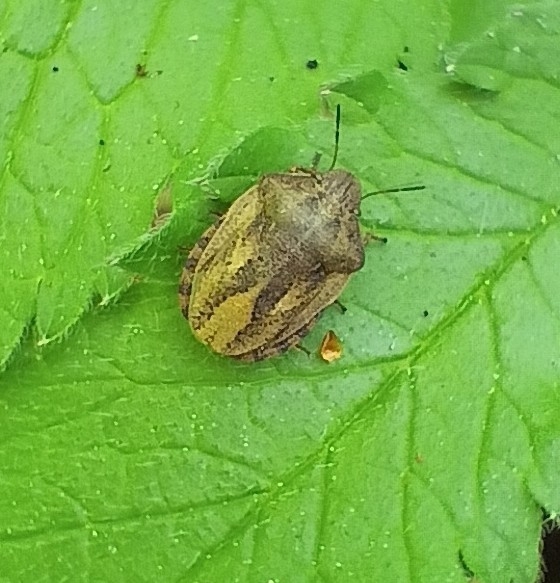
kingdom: Animalia
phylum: Arthropoda
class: Insecta
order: Hemiptera
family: Scutelleridae
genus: Eurygaster
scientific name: Eurygaster testudinaria
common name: Tortoise bug
